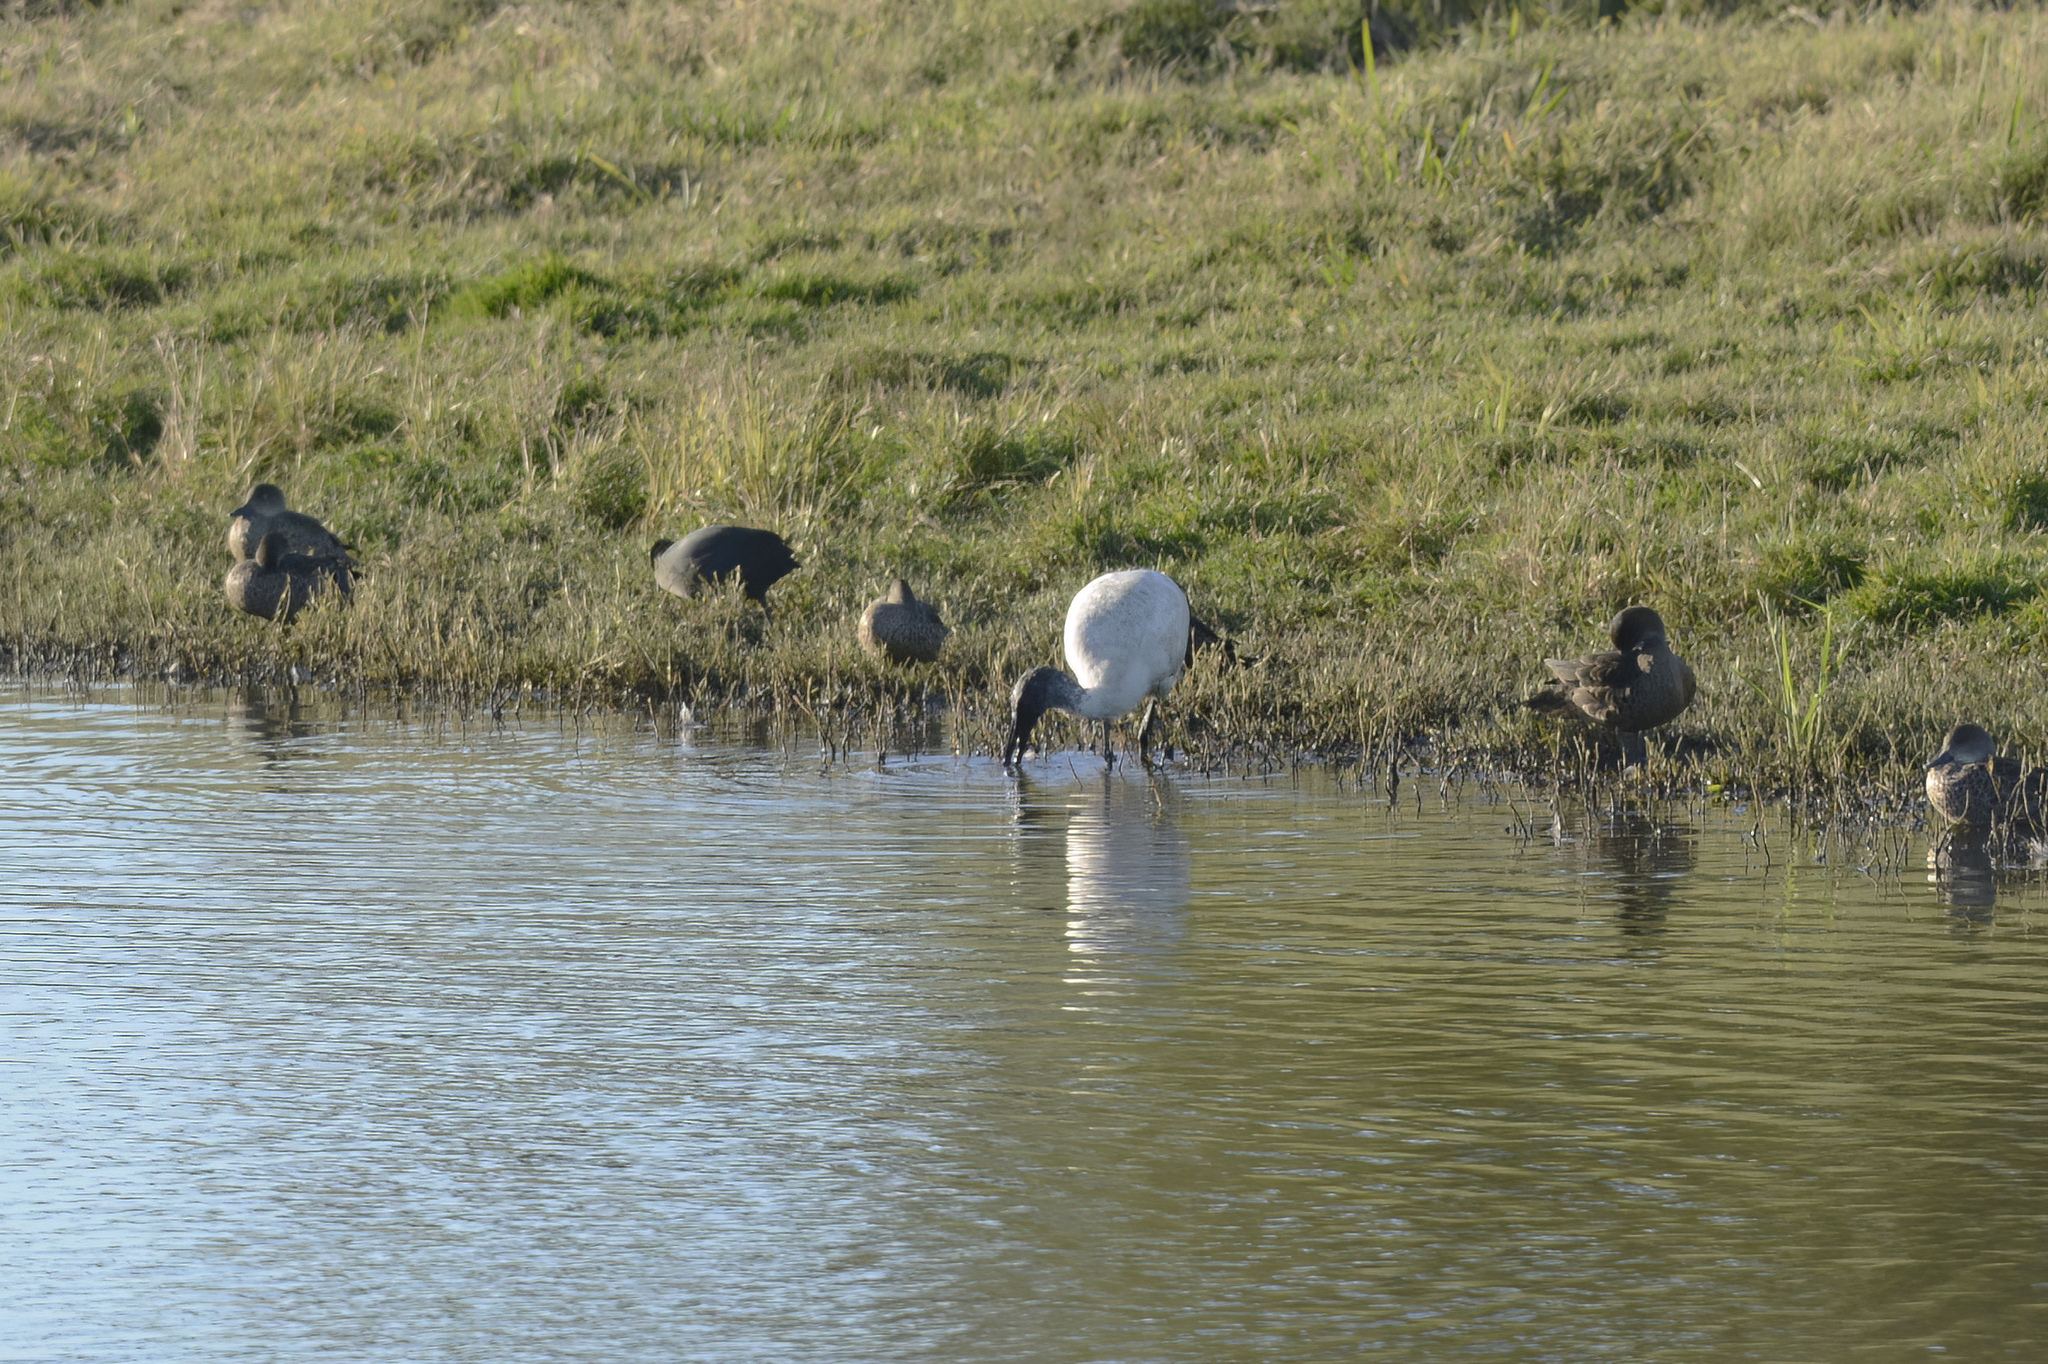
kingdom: Animalia
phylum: Chordata
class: Aves
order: Pelecaniformes
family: Threskiornithidae
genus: Threskiornis
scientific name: Threskiornis molucca
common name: Australian white ibis
